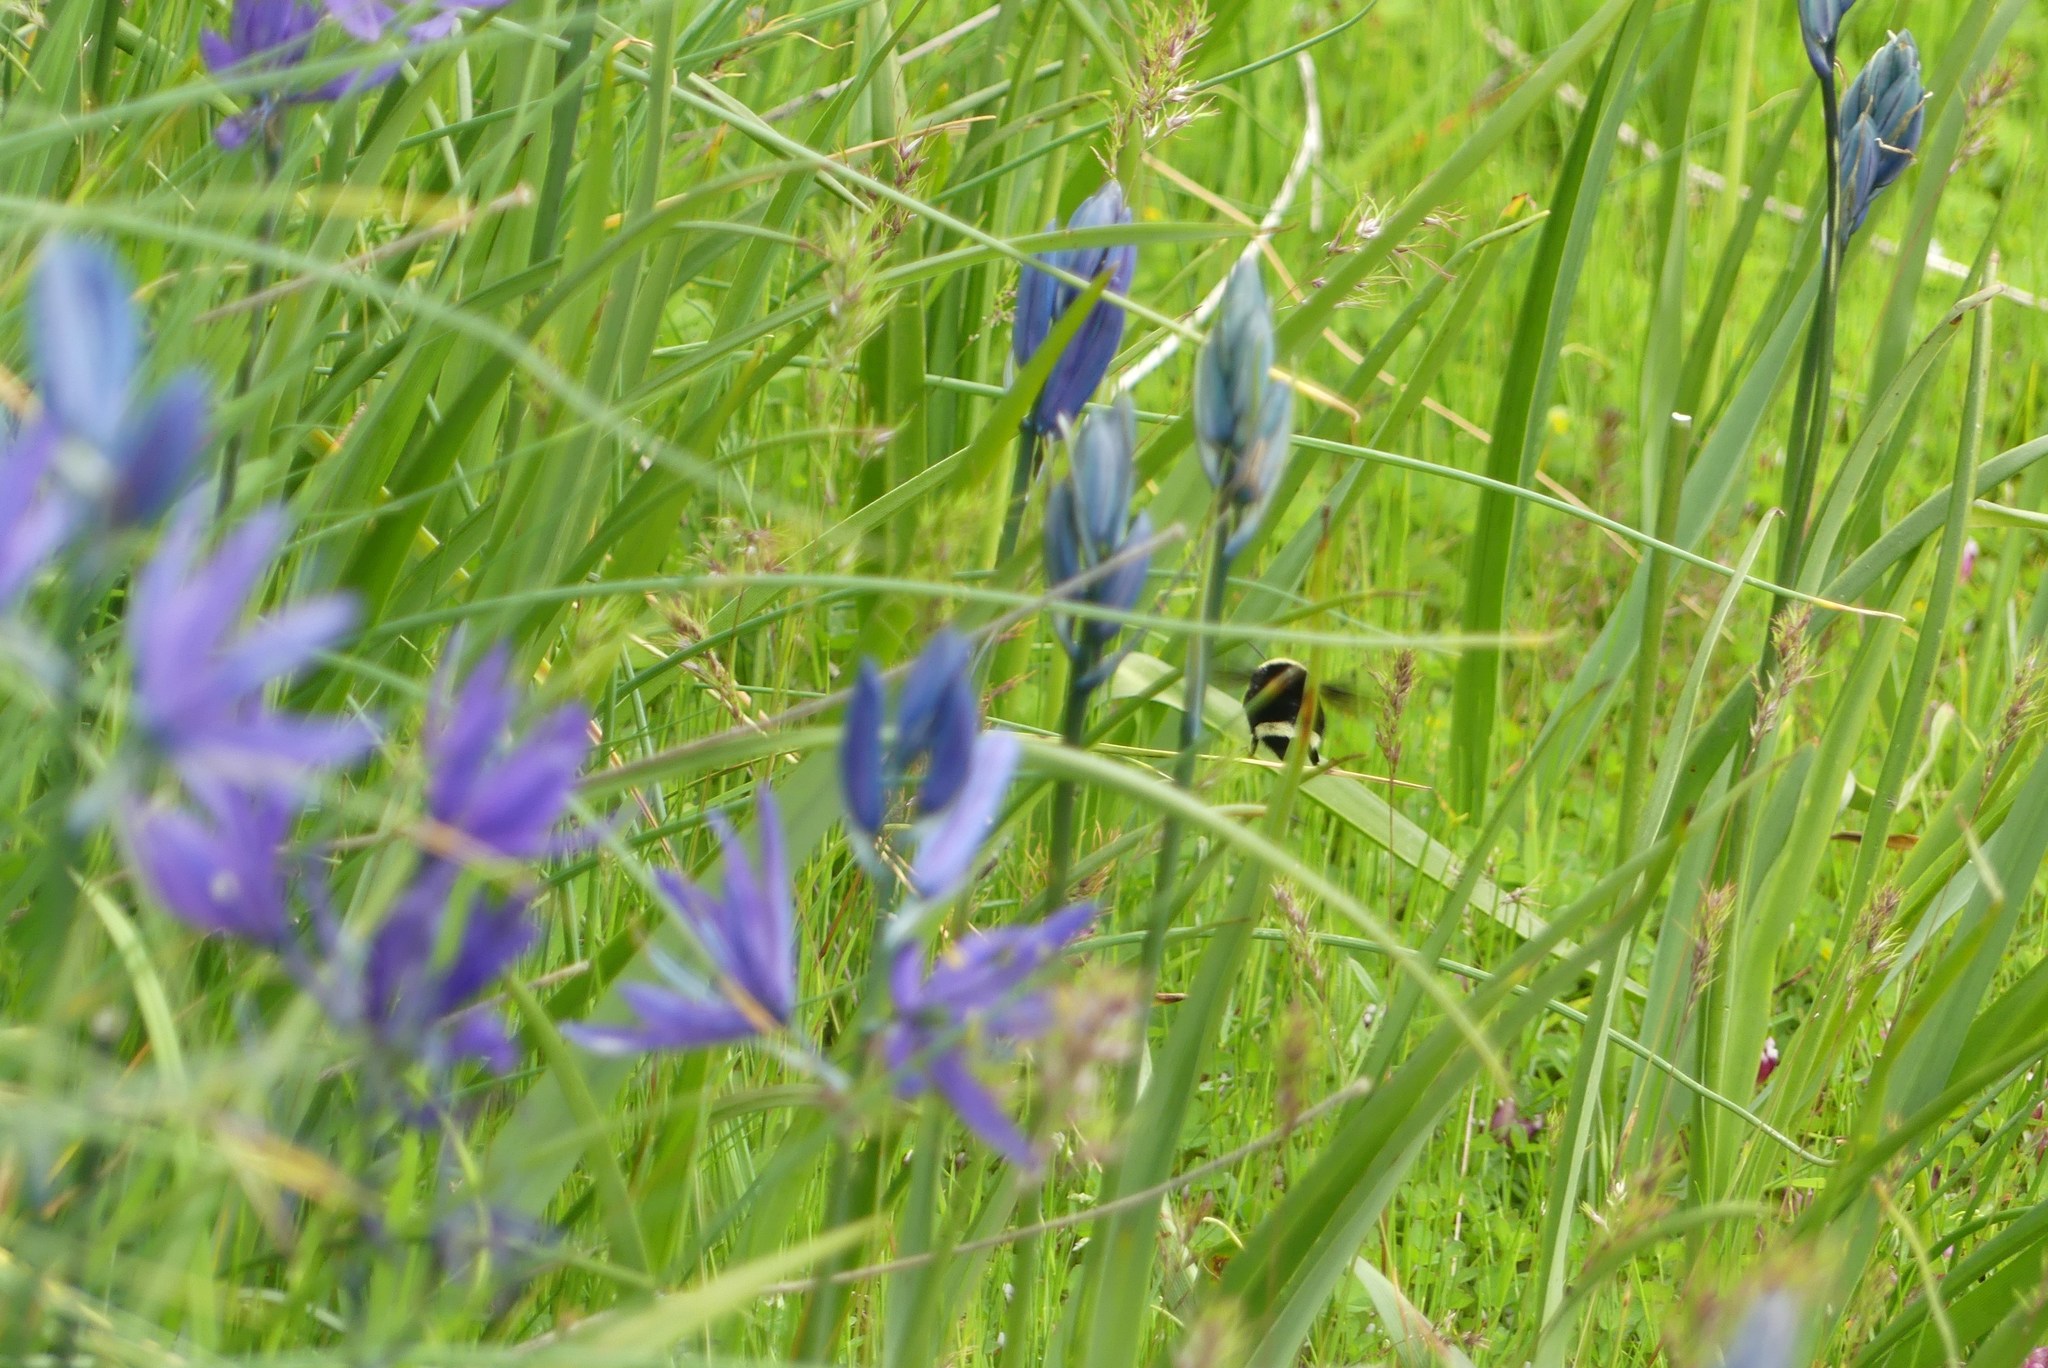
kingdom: Animalia
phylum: Arthropoda
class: Insecta
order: Hymenoptera
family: Apidae
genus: Bombus
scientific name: Bombus vosnesenskii
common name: Vosnesensky bumble bee
